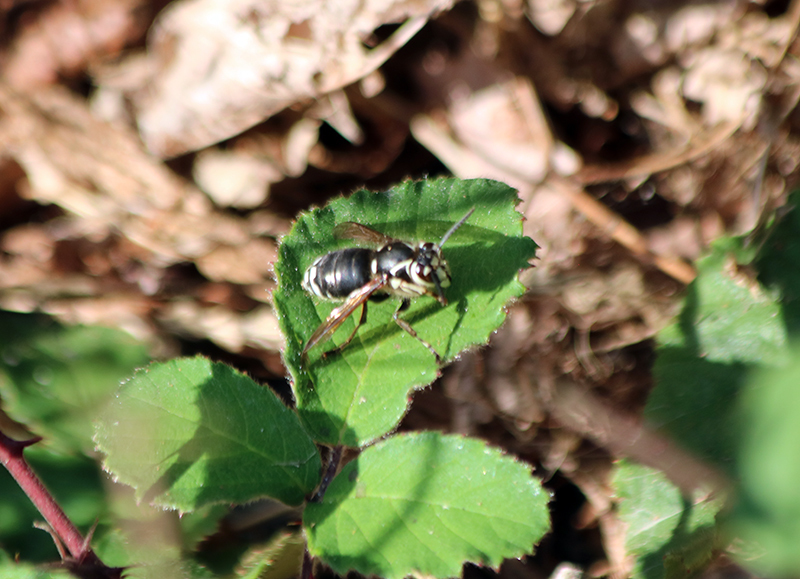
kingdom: Animalia
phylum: Arthropoda
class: Insecta
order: Hymenoptera
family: Vespidae
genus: Dolichovespula
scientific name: Dolichovespula maculata
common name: Bald-faced hornet
